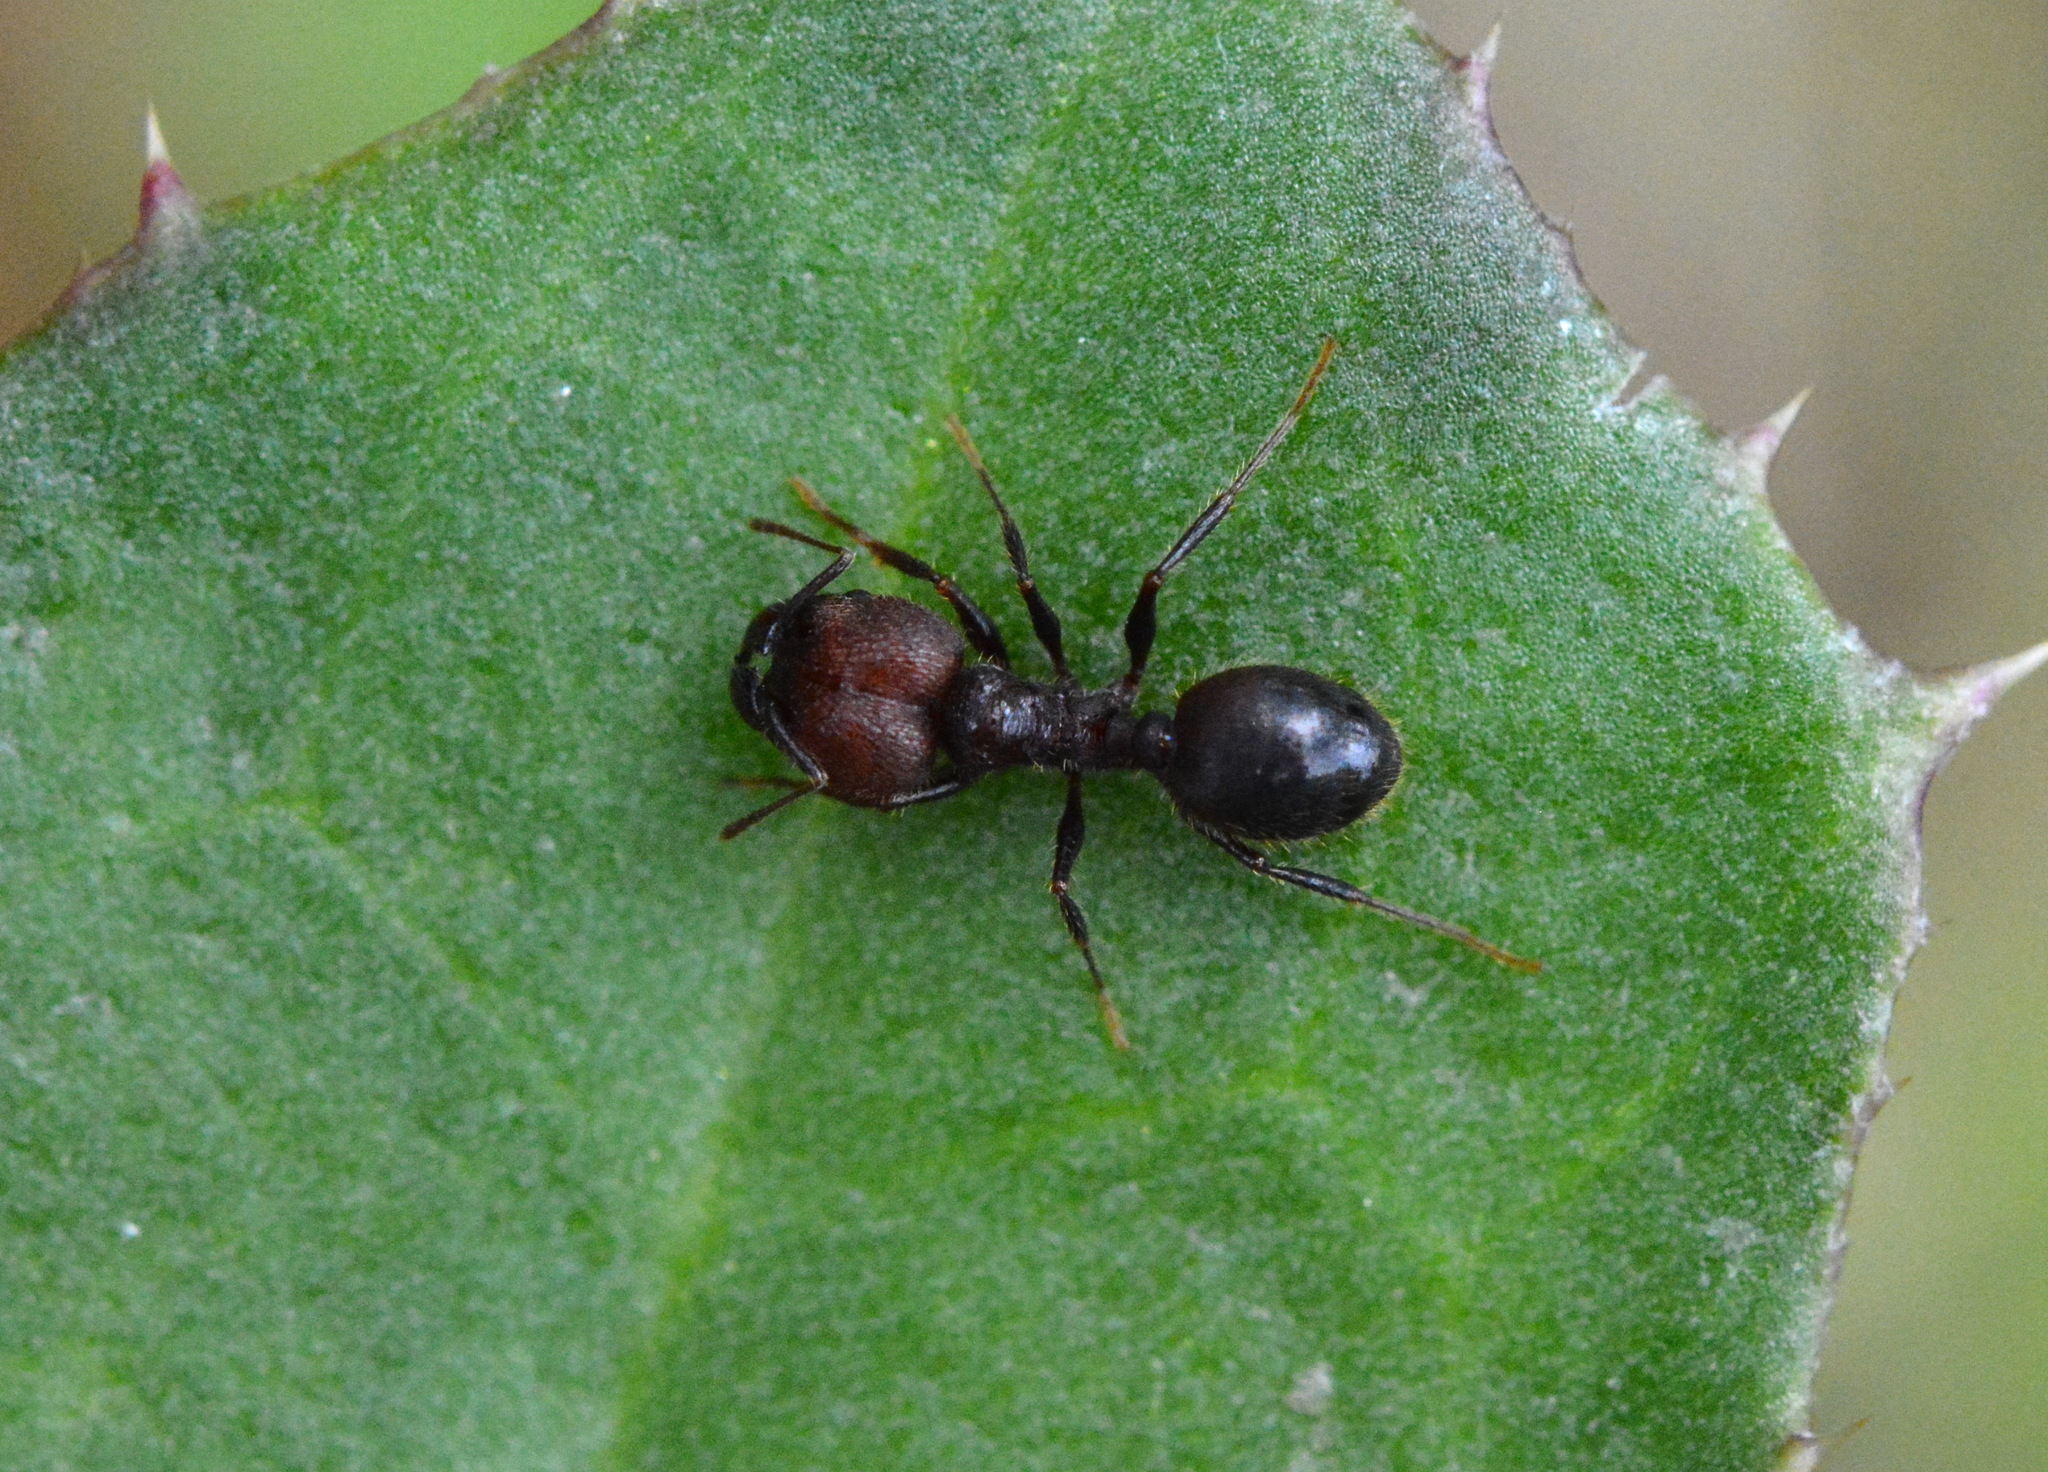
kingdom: Animalia
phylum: Arthropoda
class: Insecta
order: Hymenoptera
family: Formicidae
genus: Pheidole
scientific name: Pheidole obscurithorax
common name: Obscure big-headed ant
